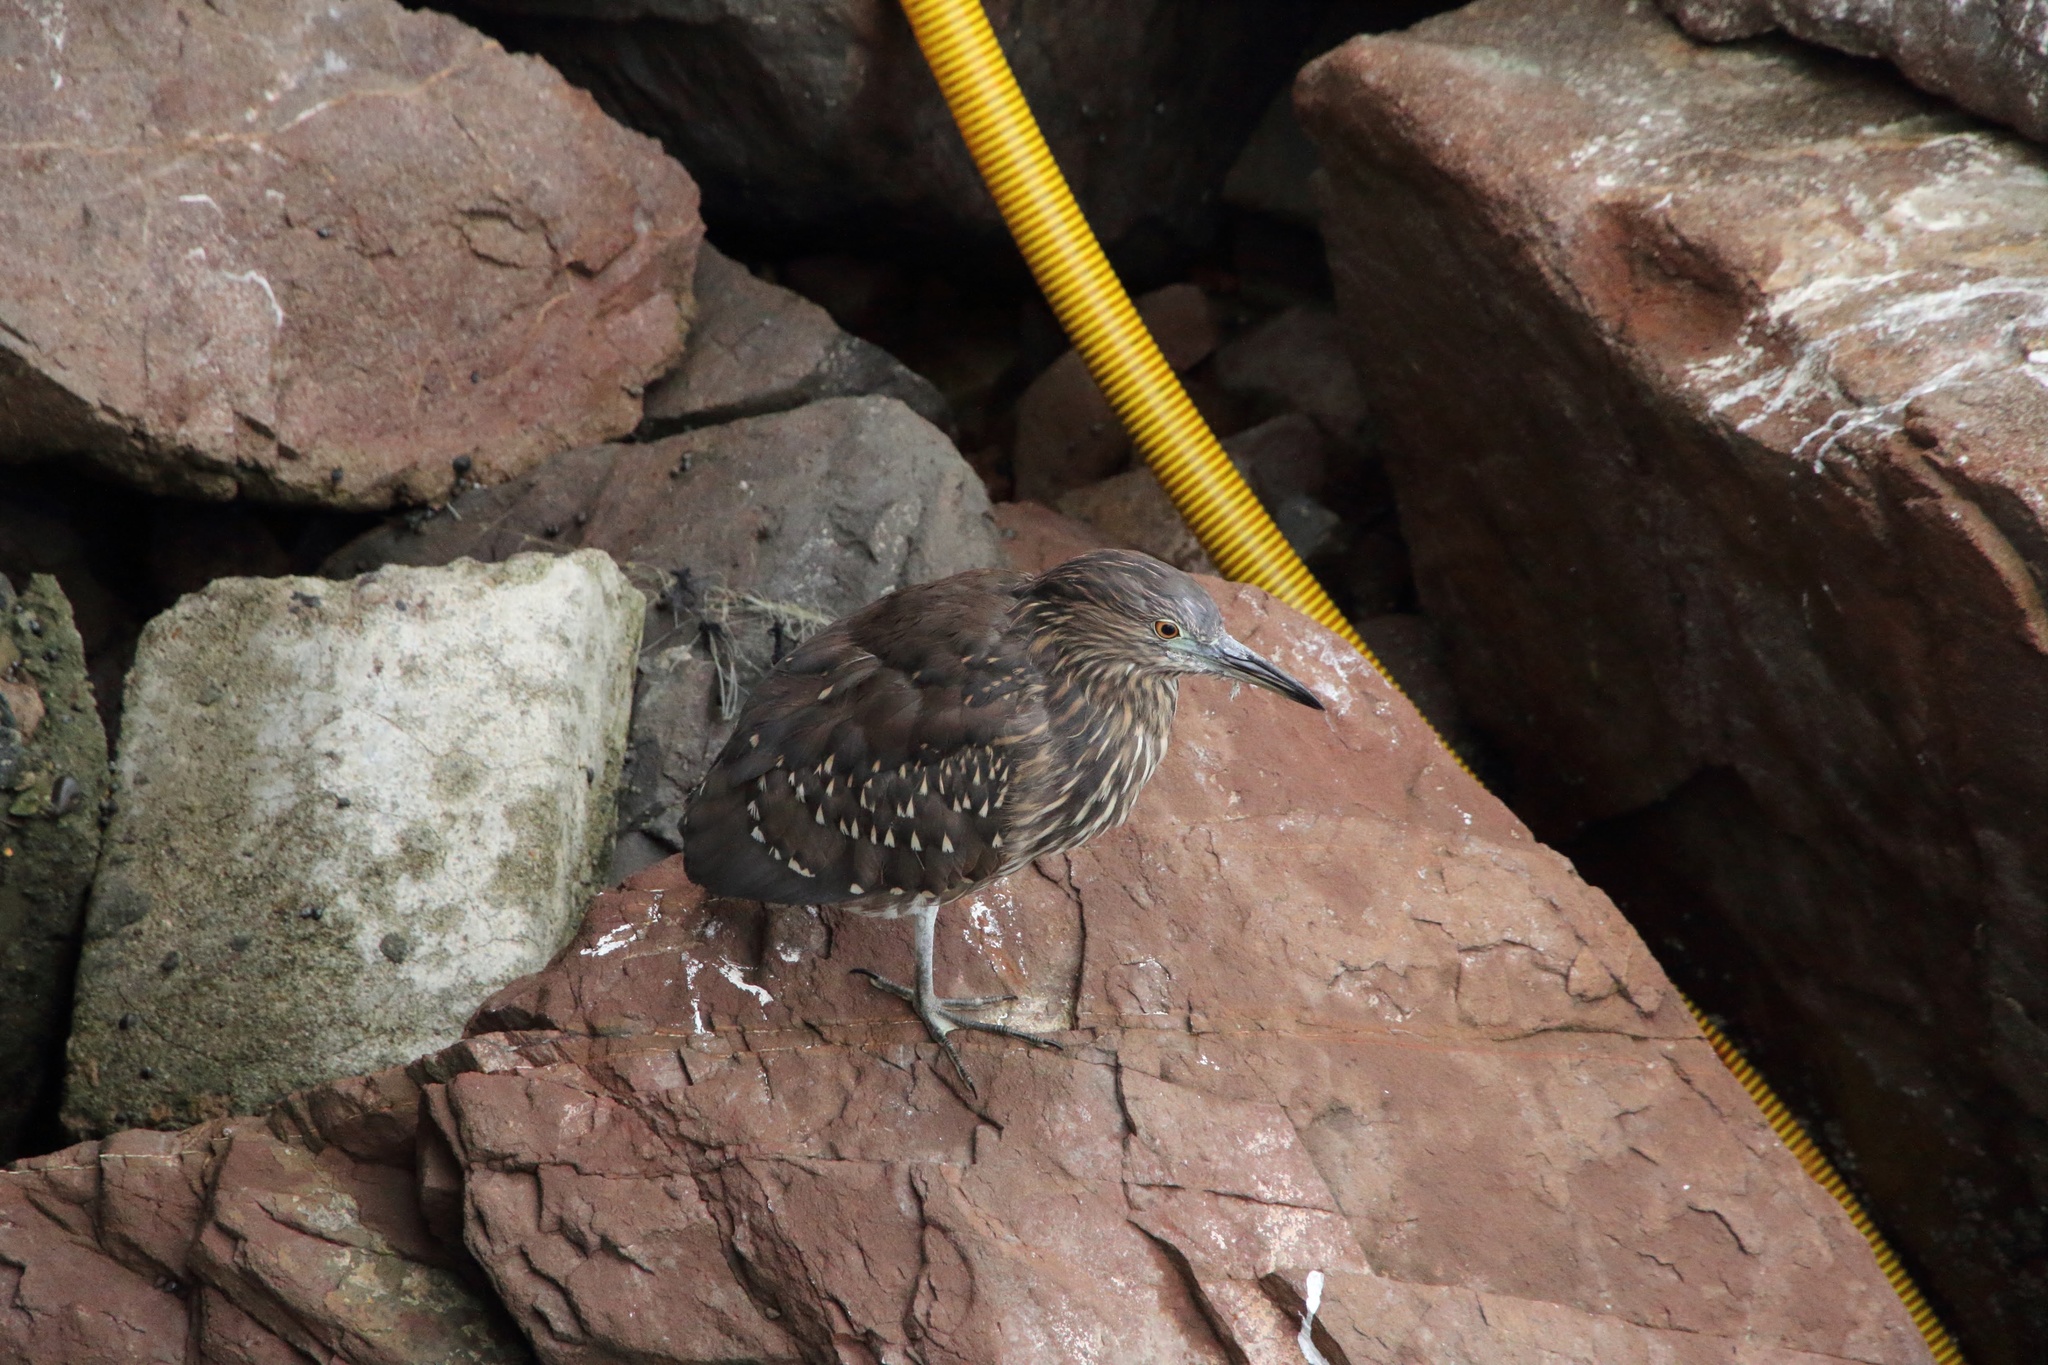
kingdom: Animalia
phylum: Chordata
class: Aves
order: Pelecaniformes
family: Ardeidae
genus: Nycticorax
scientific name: Nycticorax nycticorax
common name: Black-crowned night heron
